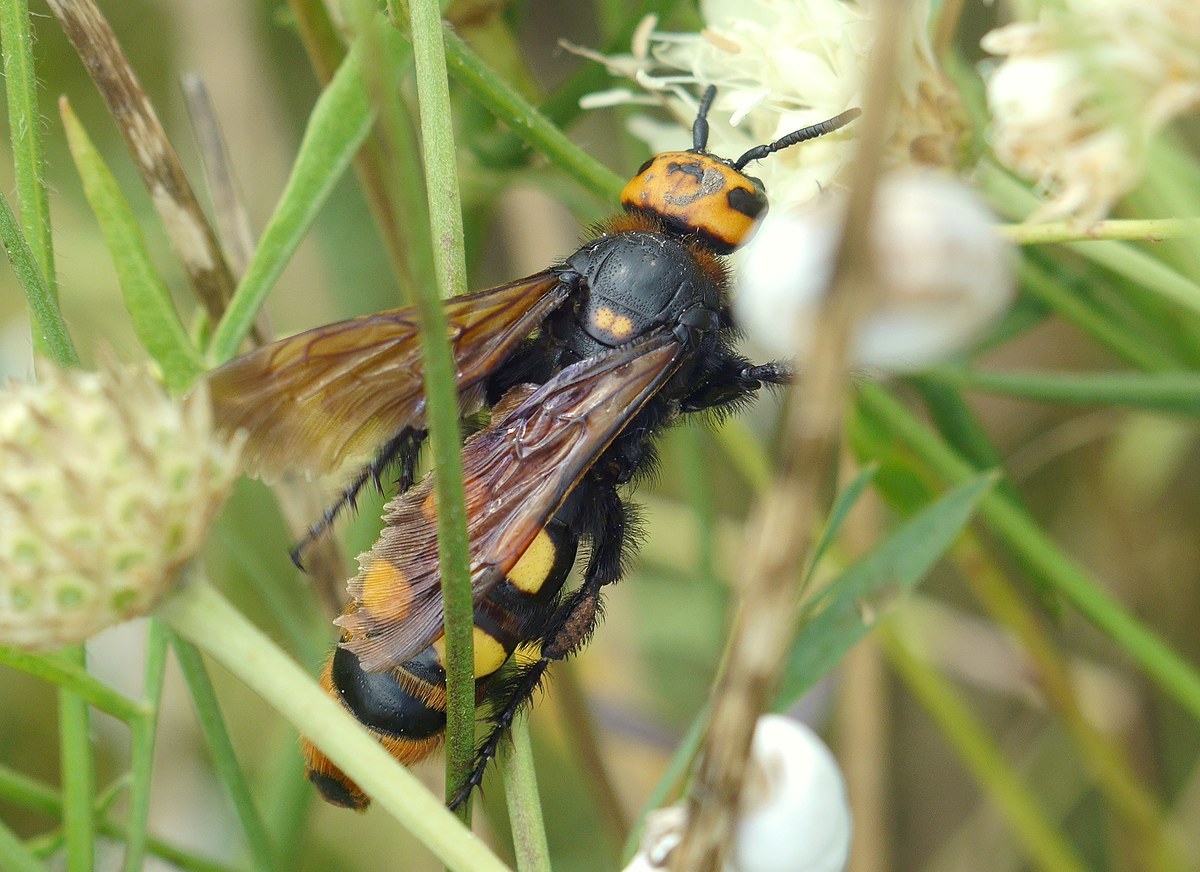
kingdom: Animalia
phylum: Arthropoda
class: Insecta
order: Hymenoptera
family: Scoliidae
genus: Megascolia
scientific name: Megascolia maculata
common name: Mammoth wasp
